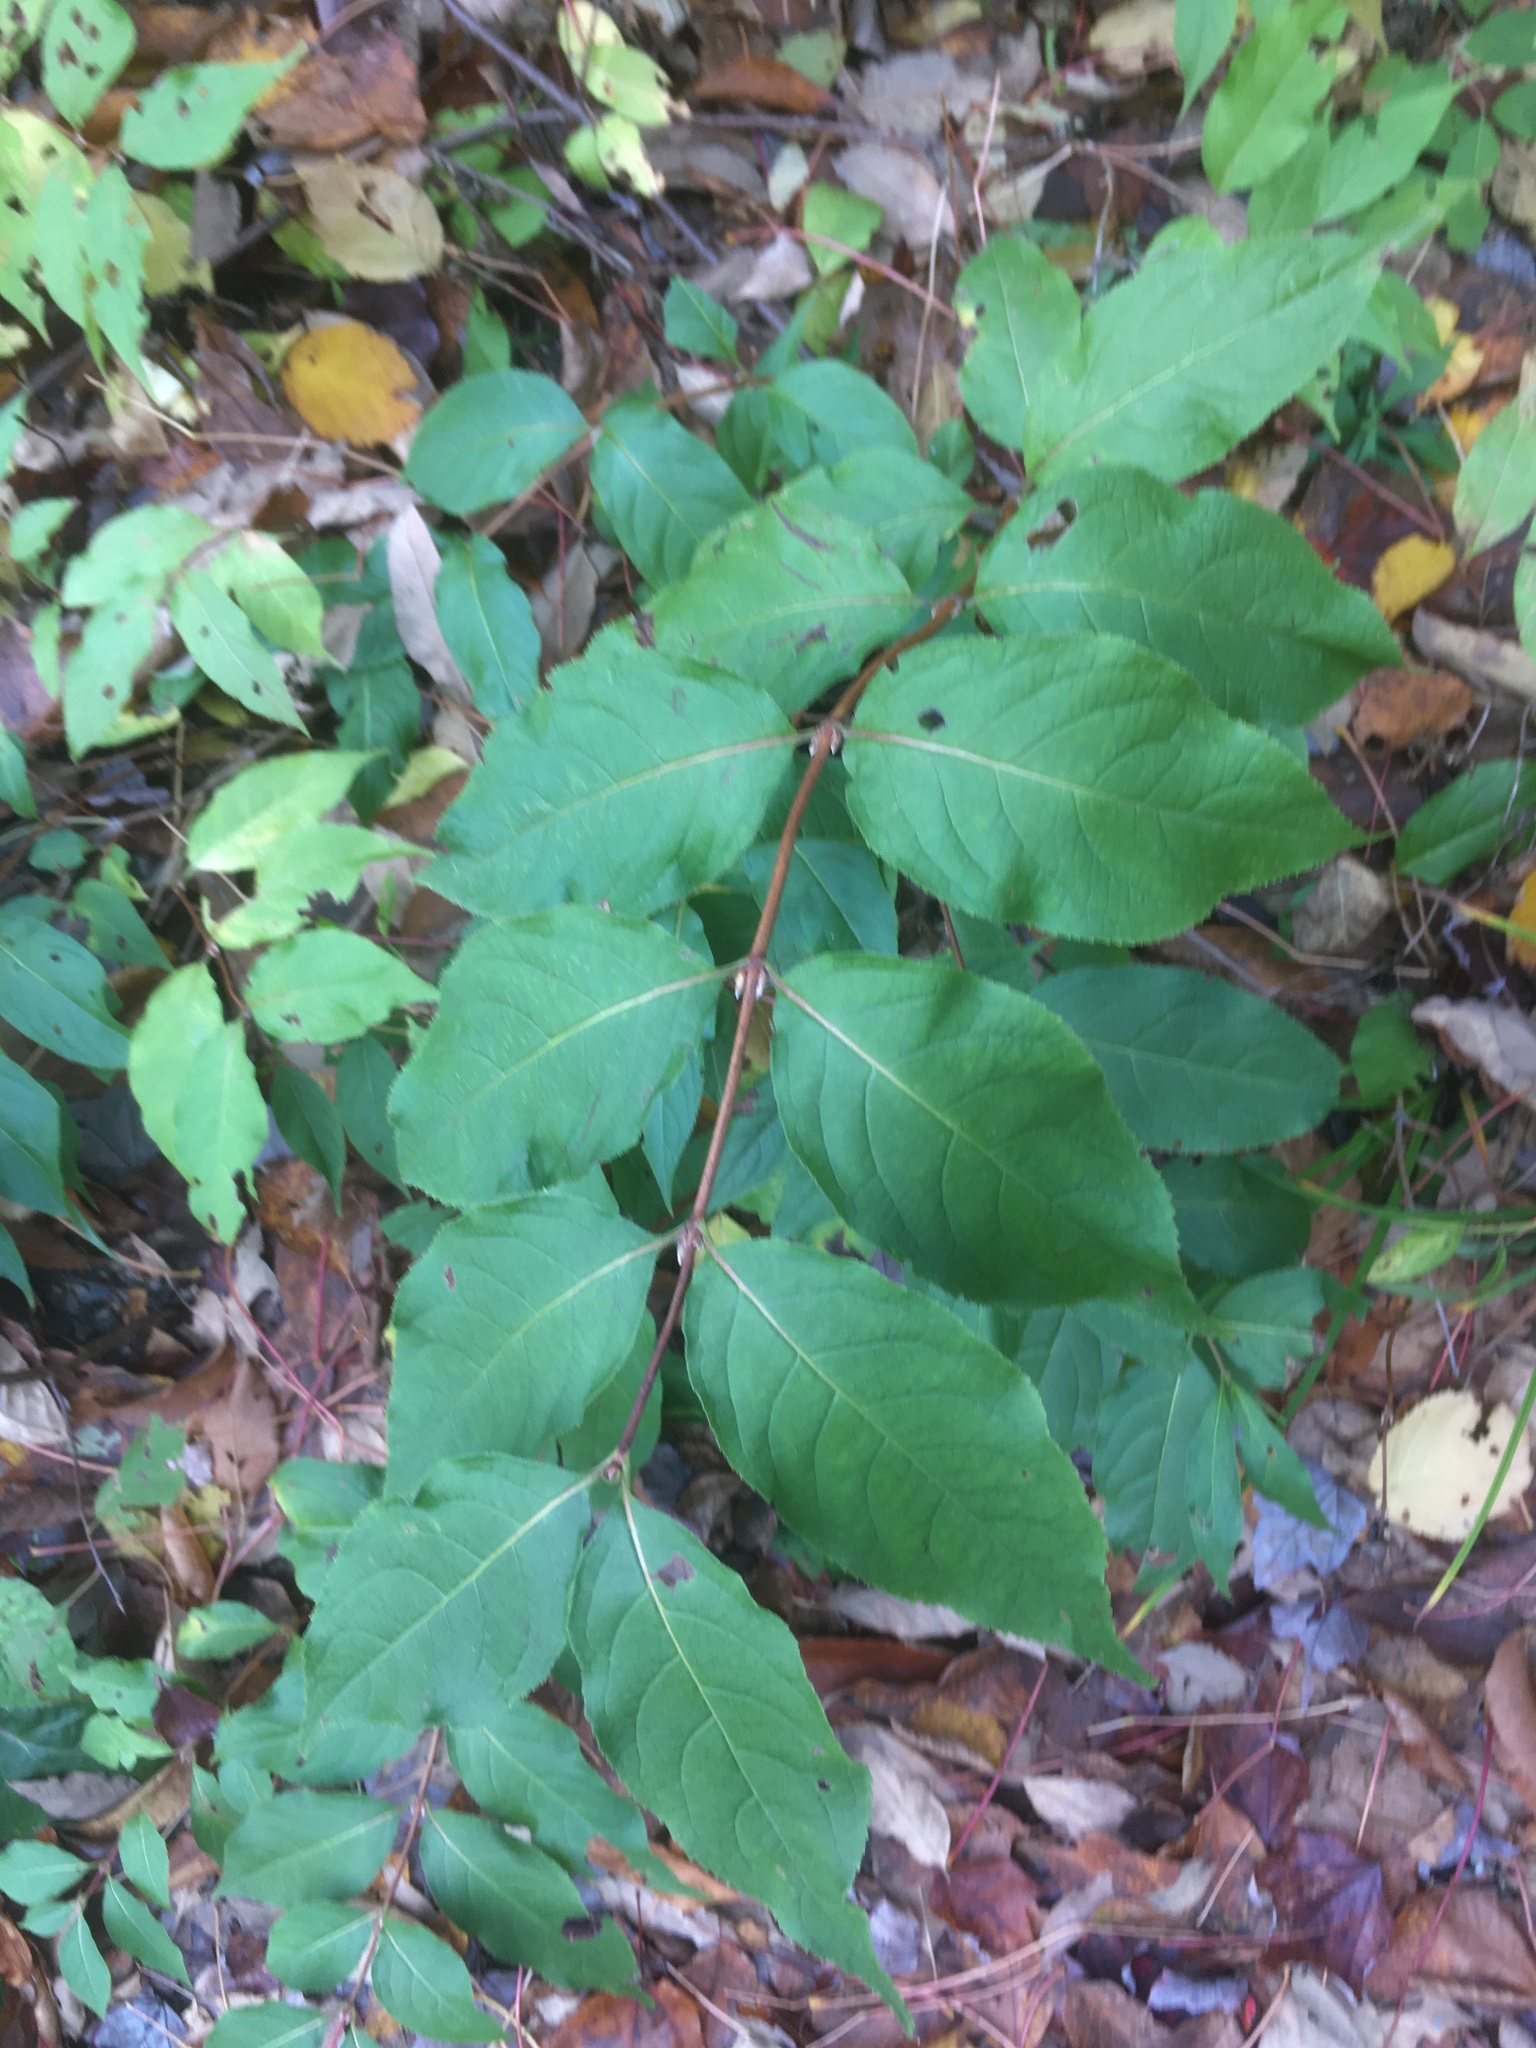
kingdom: Plantae
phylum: Tracheophyta
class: Magnoliopsida
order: Dipsacales
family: Caprifoliaceae
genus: Diervilla
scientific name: Diervilla lonicera
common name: Bush-honeysuckle
